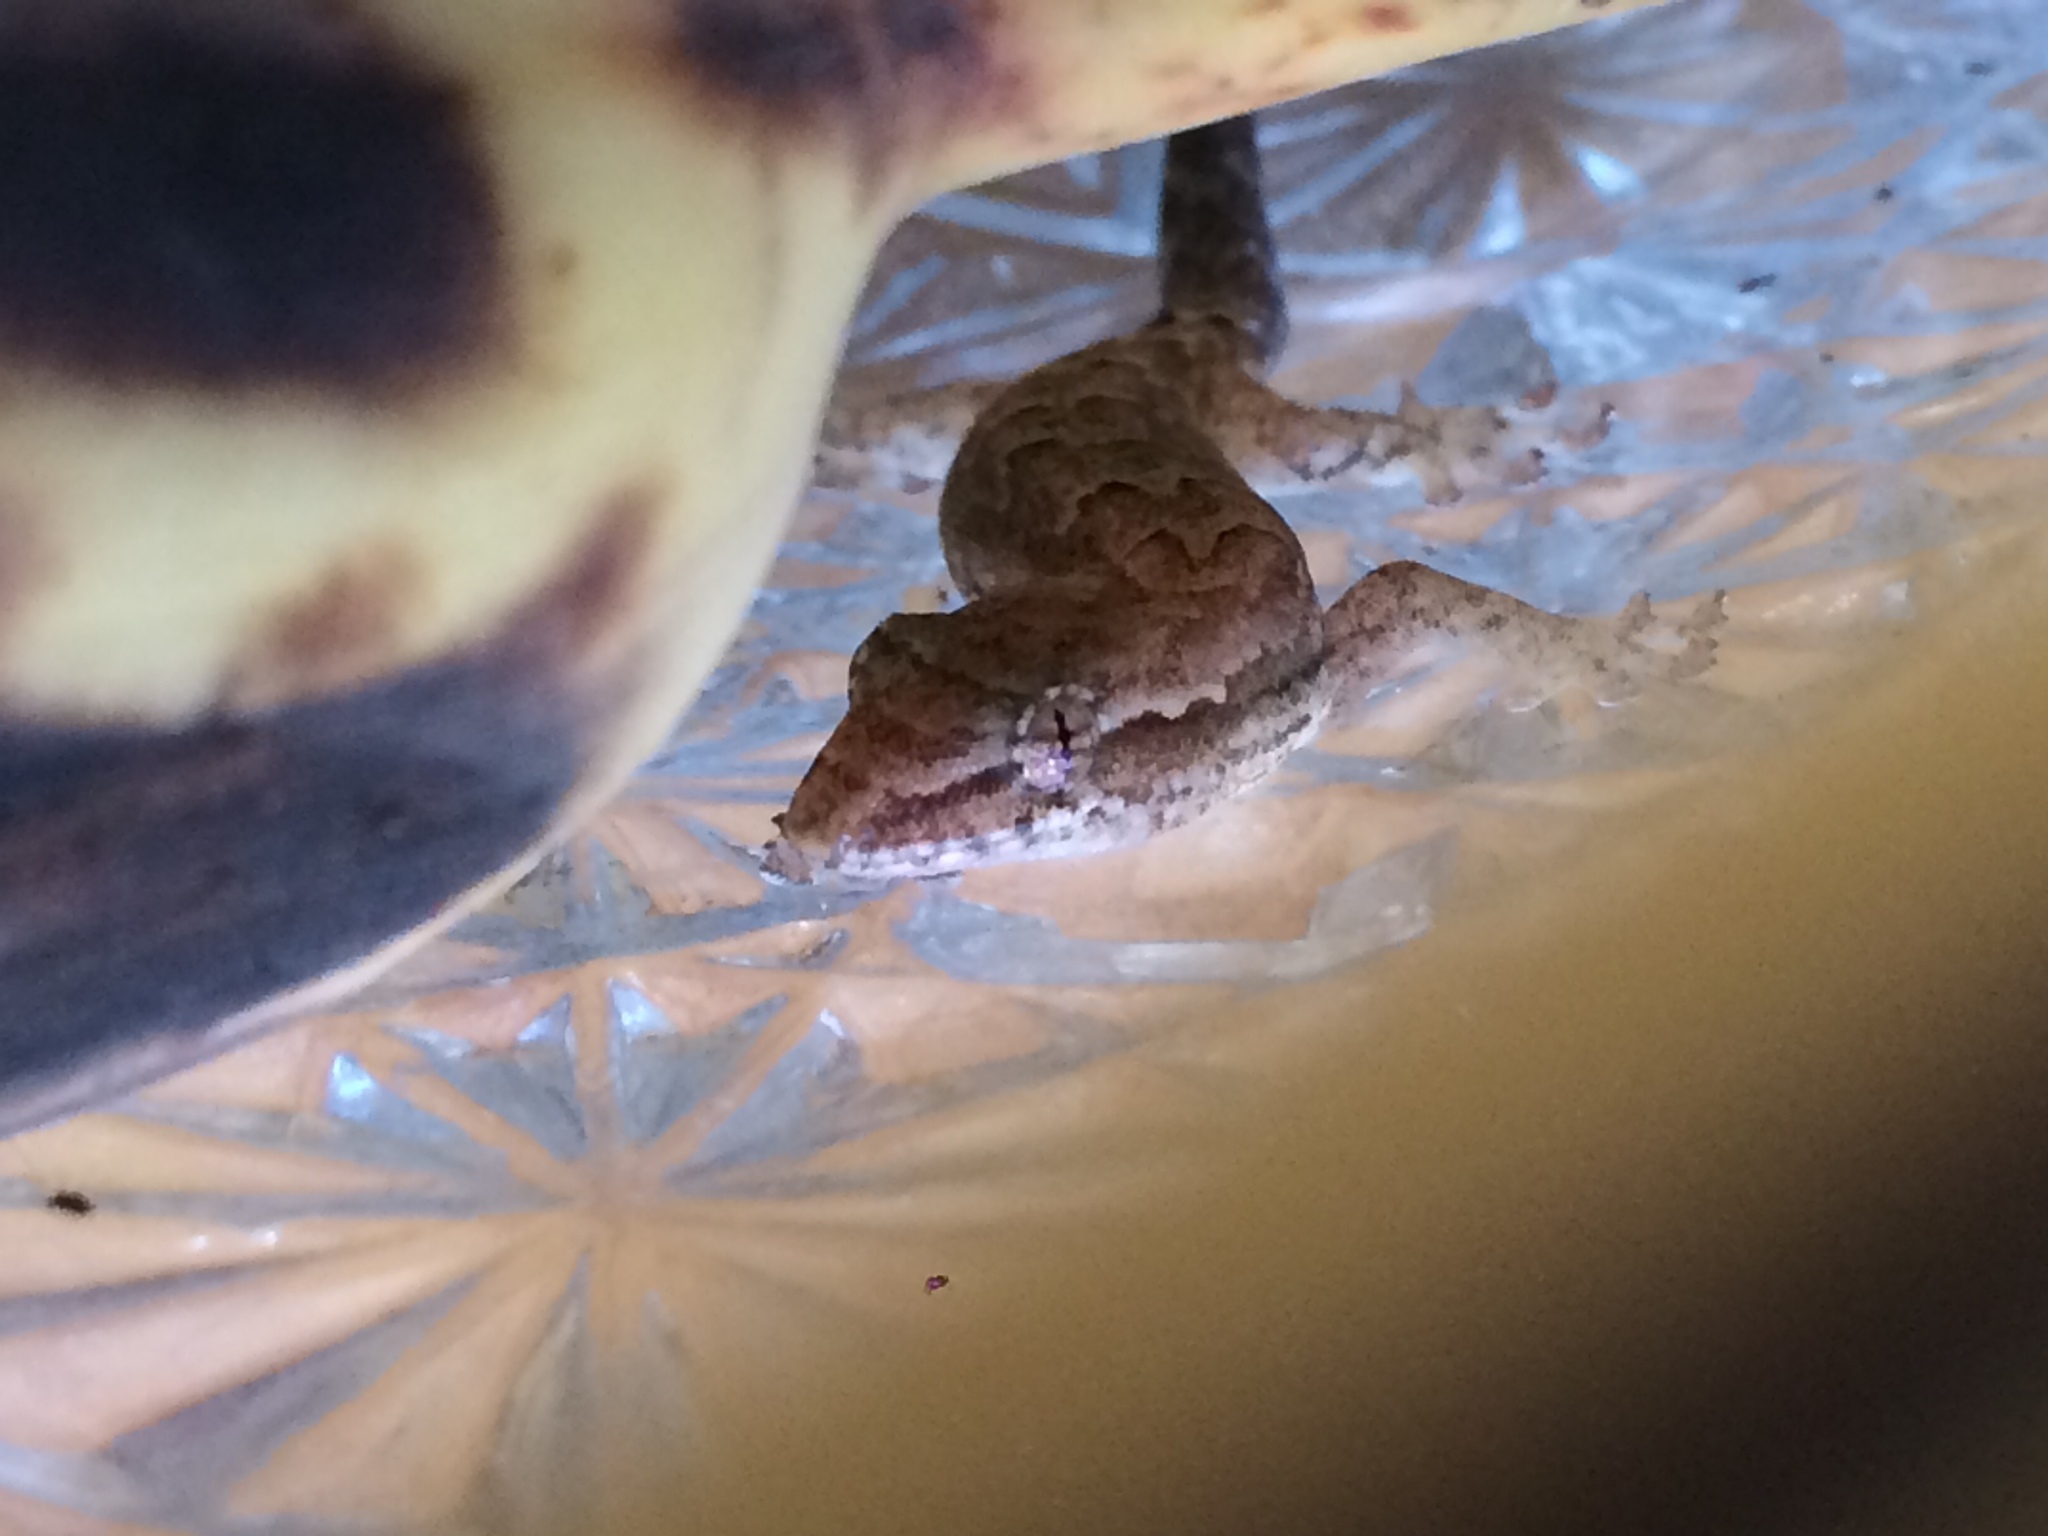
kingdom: Animalia
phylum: Chordata
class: Squamata
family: Gekkonidae
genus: Lepidodactylus
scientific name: Lepidodactylus lugubris
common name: Mourning gecko
